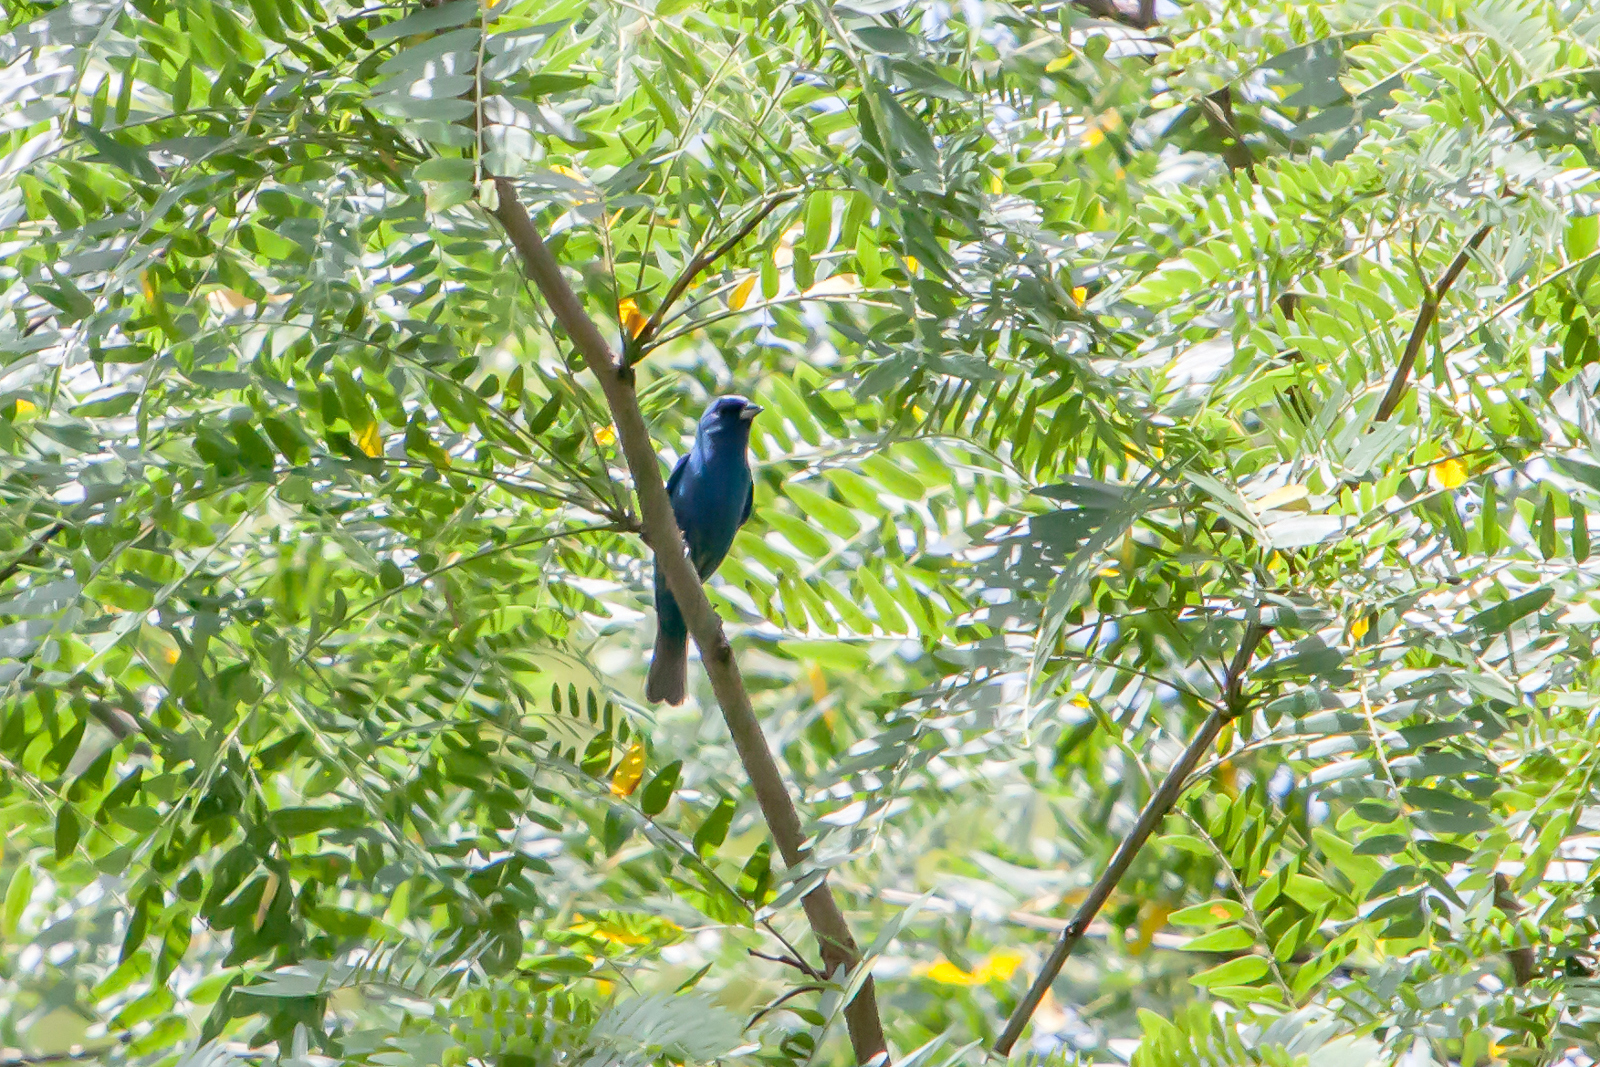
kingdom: Animalia
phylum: Chordata
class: Aves
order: Passeriformes
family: Cardinalidae
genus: Passerina
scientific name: Passerina cyanea
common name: Indigo bunting
